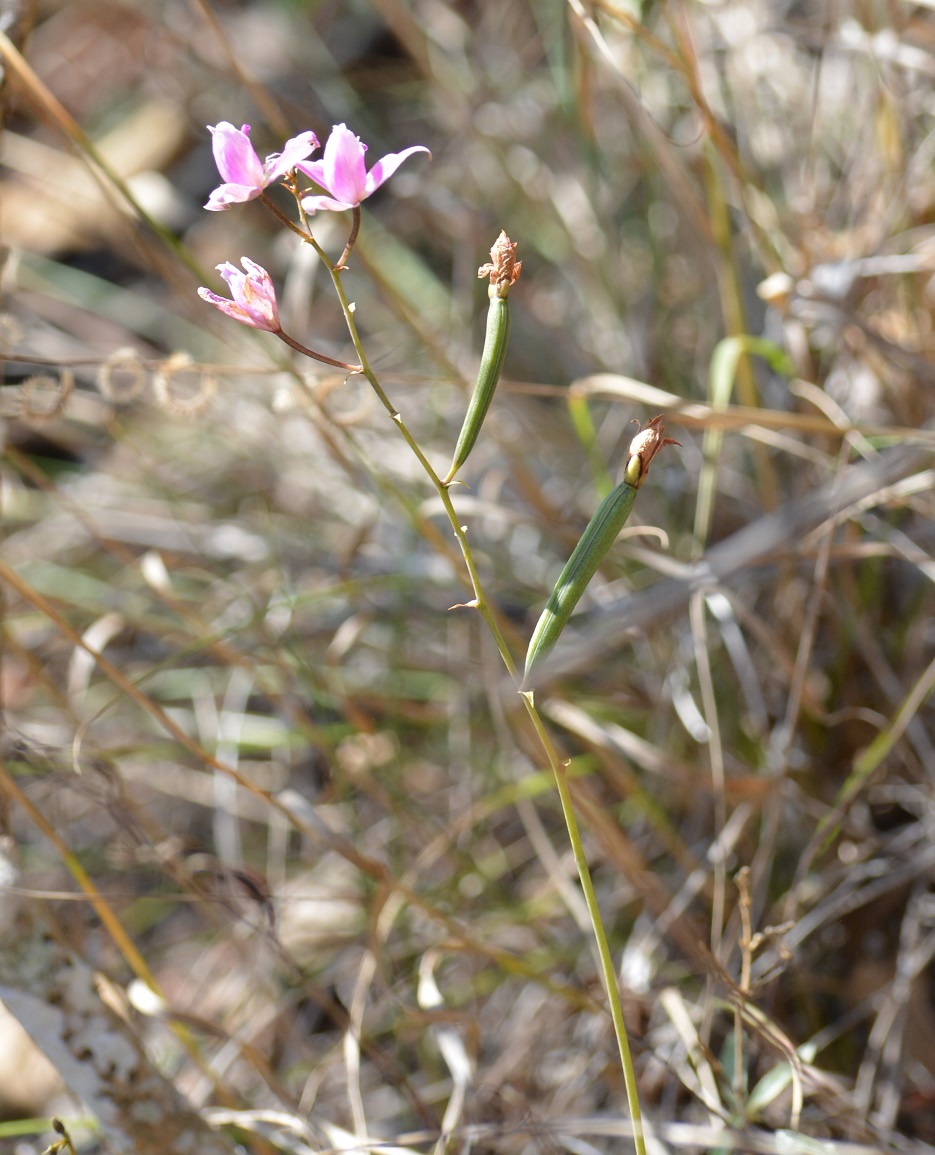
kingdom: Plantae
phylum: Tracheophyta
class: Liliopsida
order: Asparagales
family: Orchidaceae
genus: Bletia
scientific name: Bletia purpurea
